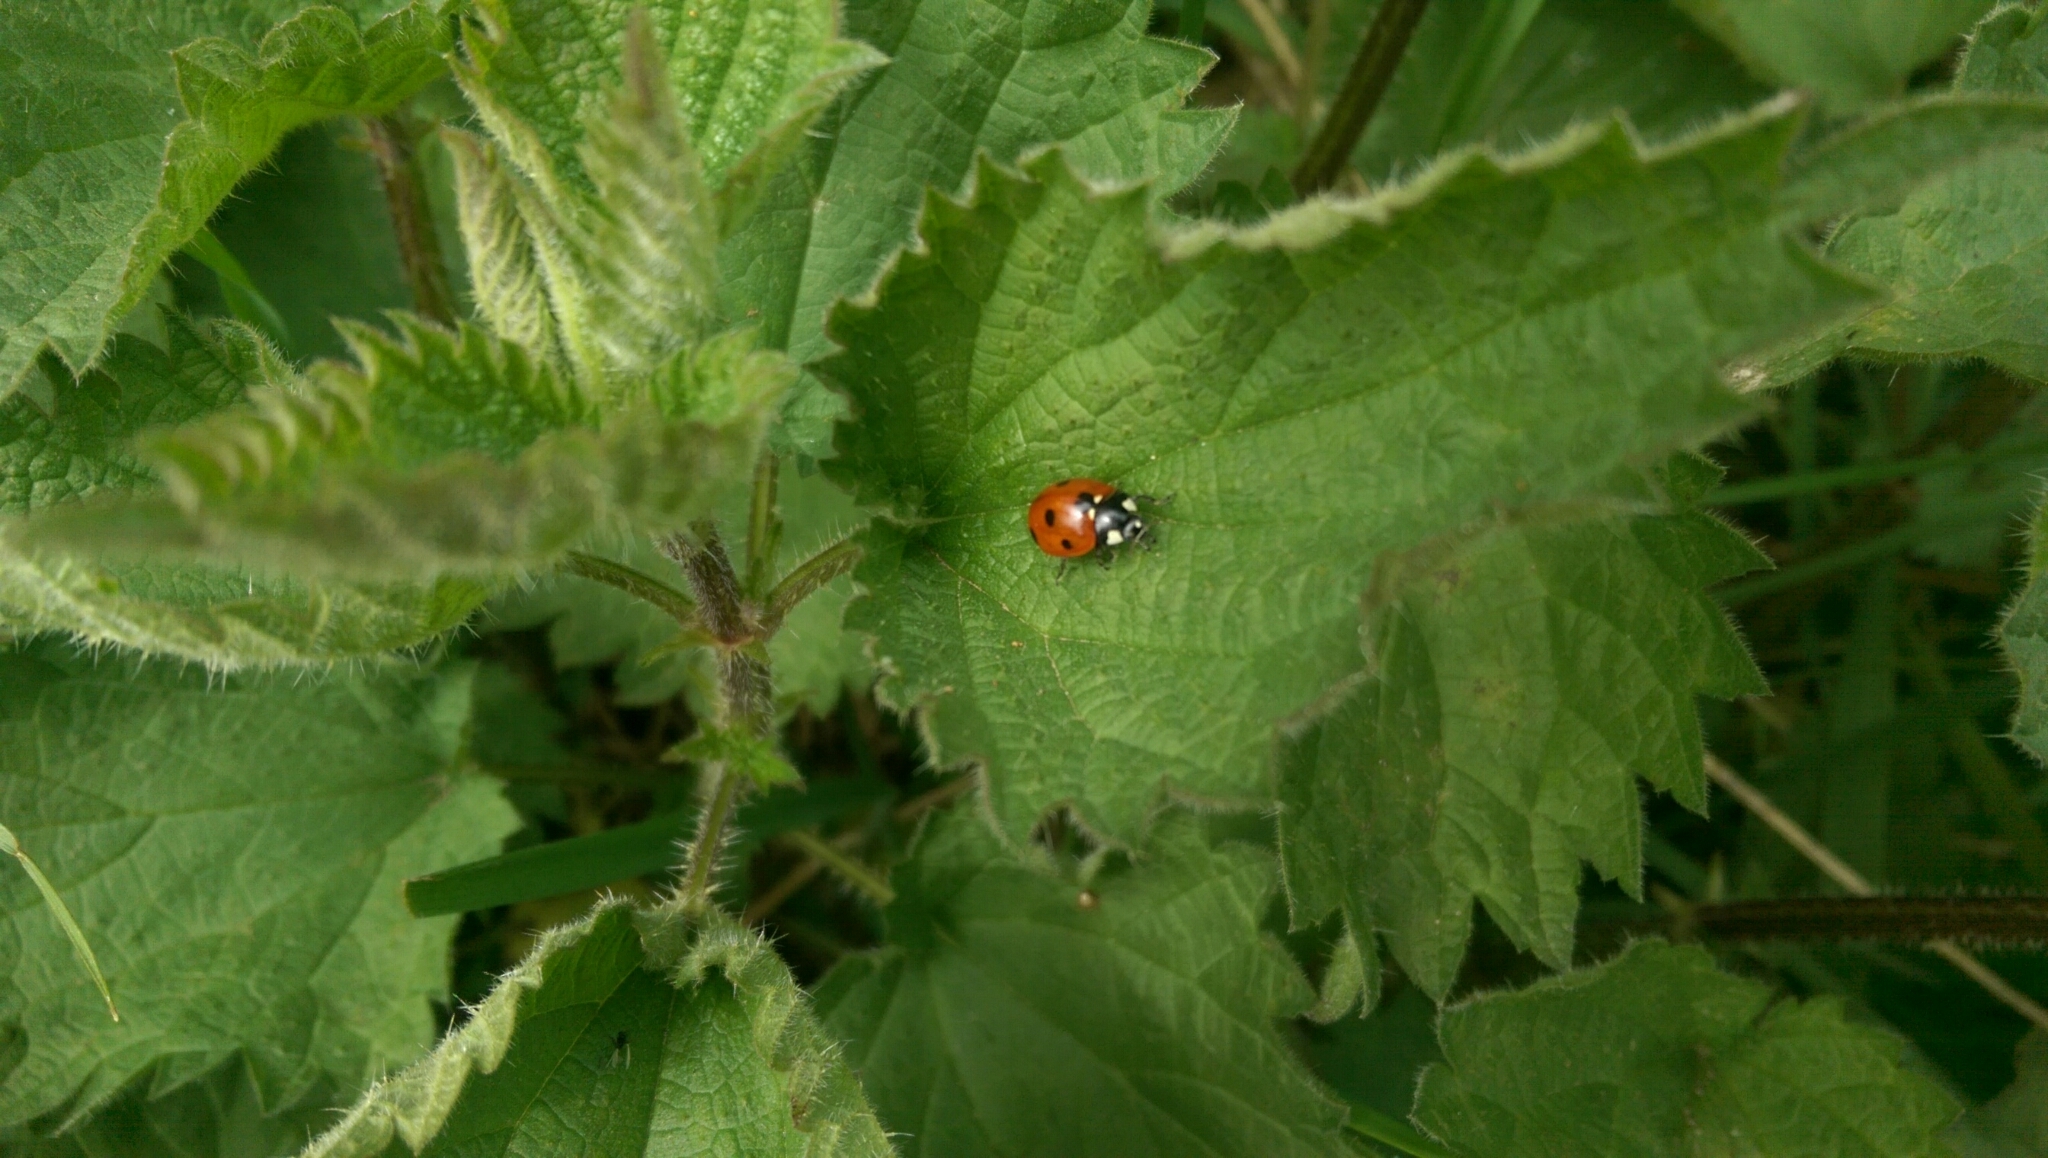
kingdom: Animalia
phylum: Arthropoda
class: Insecta
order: Coleoptera
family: Coccinellidae
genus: Coccinella
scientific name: Coccinella septempunctata
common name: Sevenspotted lady beetle
